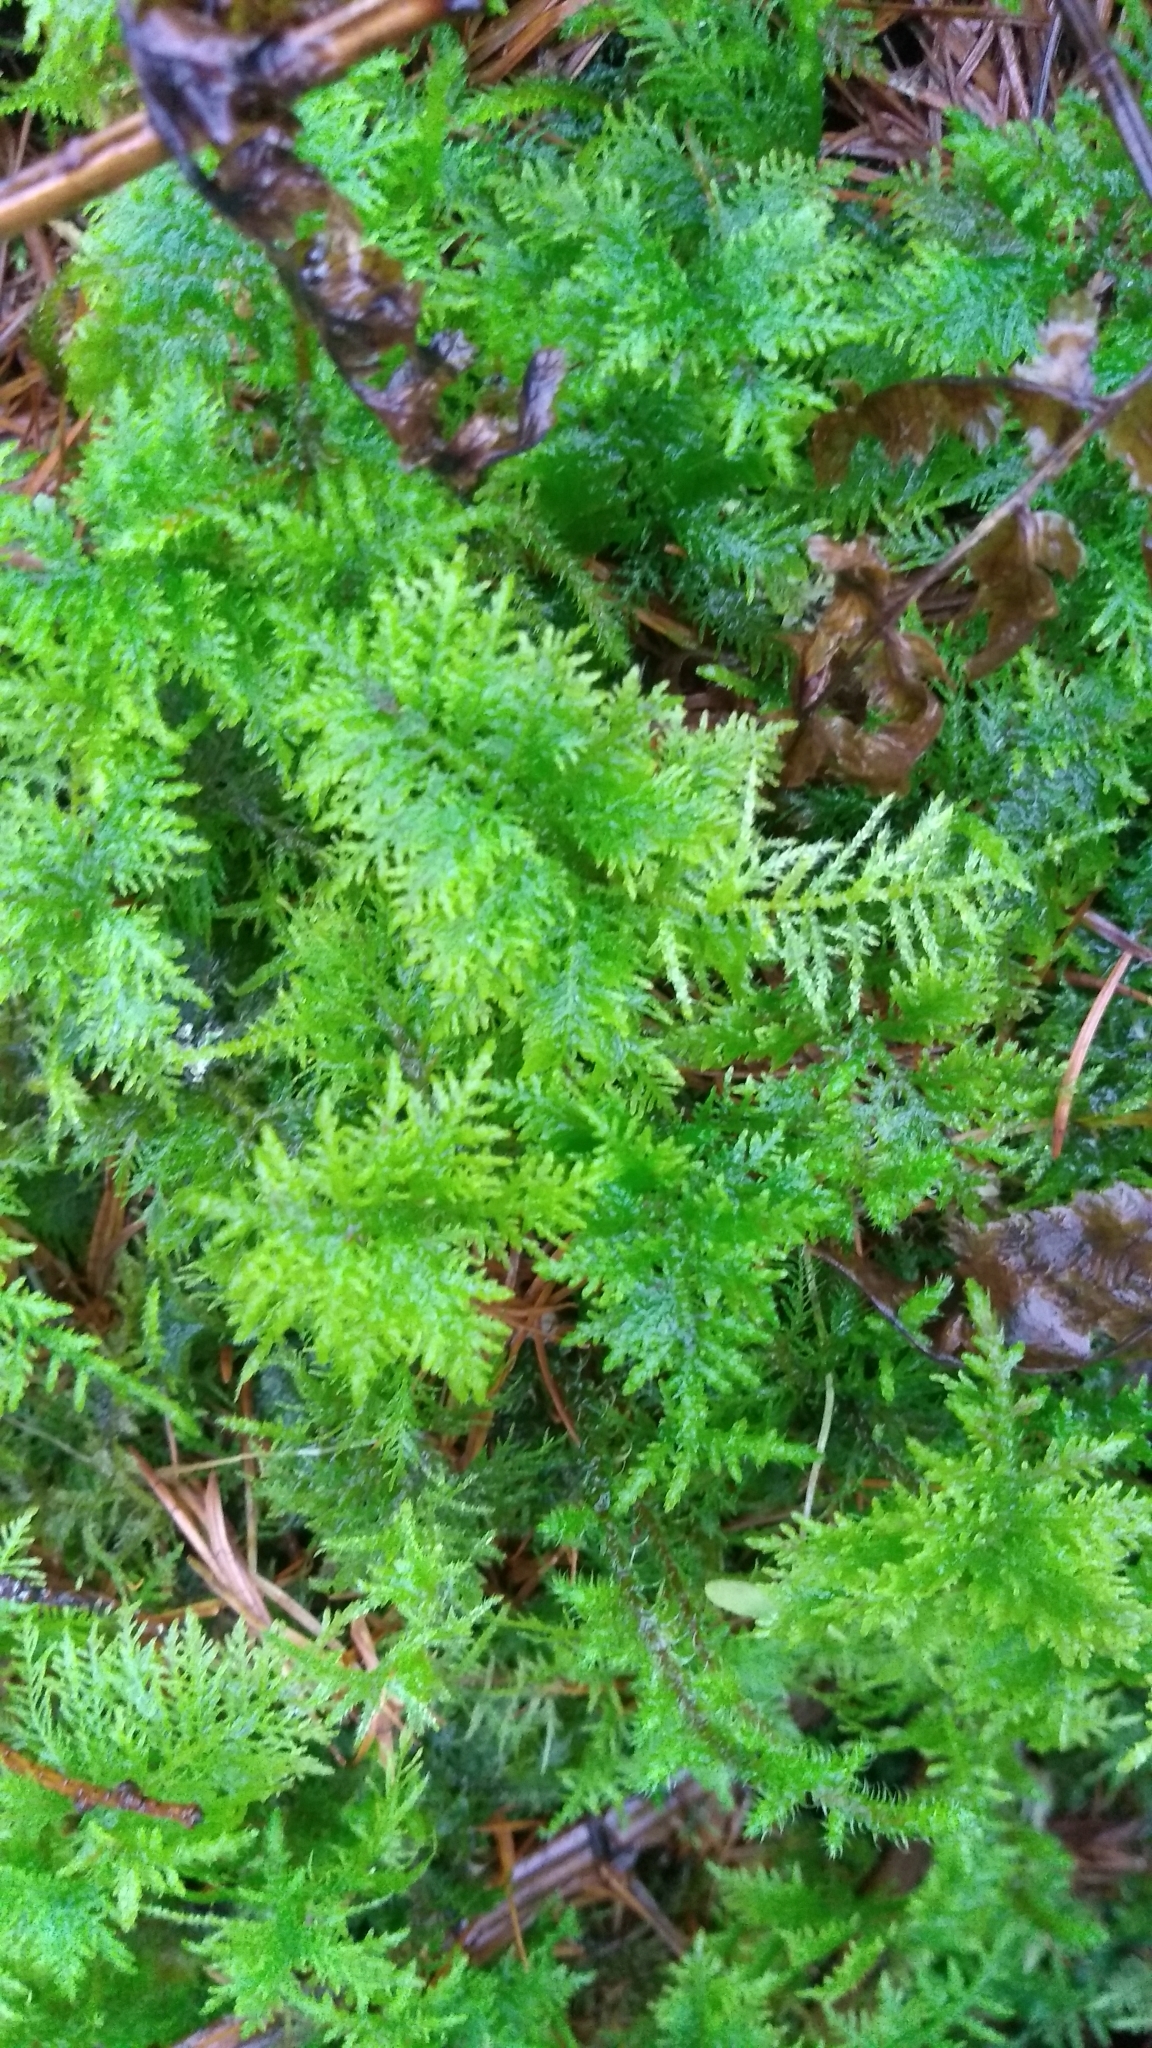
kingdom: Plantae
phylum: Bryophyta
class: Bryopsida
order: Hypnales
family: Thuidiaceae
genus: Thuidium
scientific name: Thuidium tamariscinum
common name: Common tamarisk-moss
